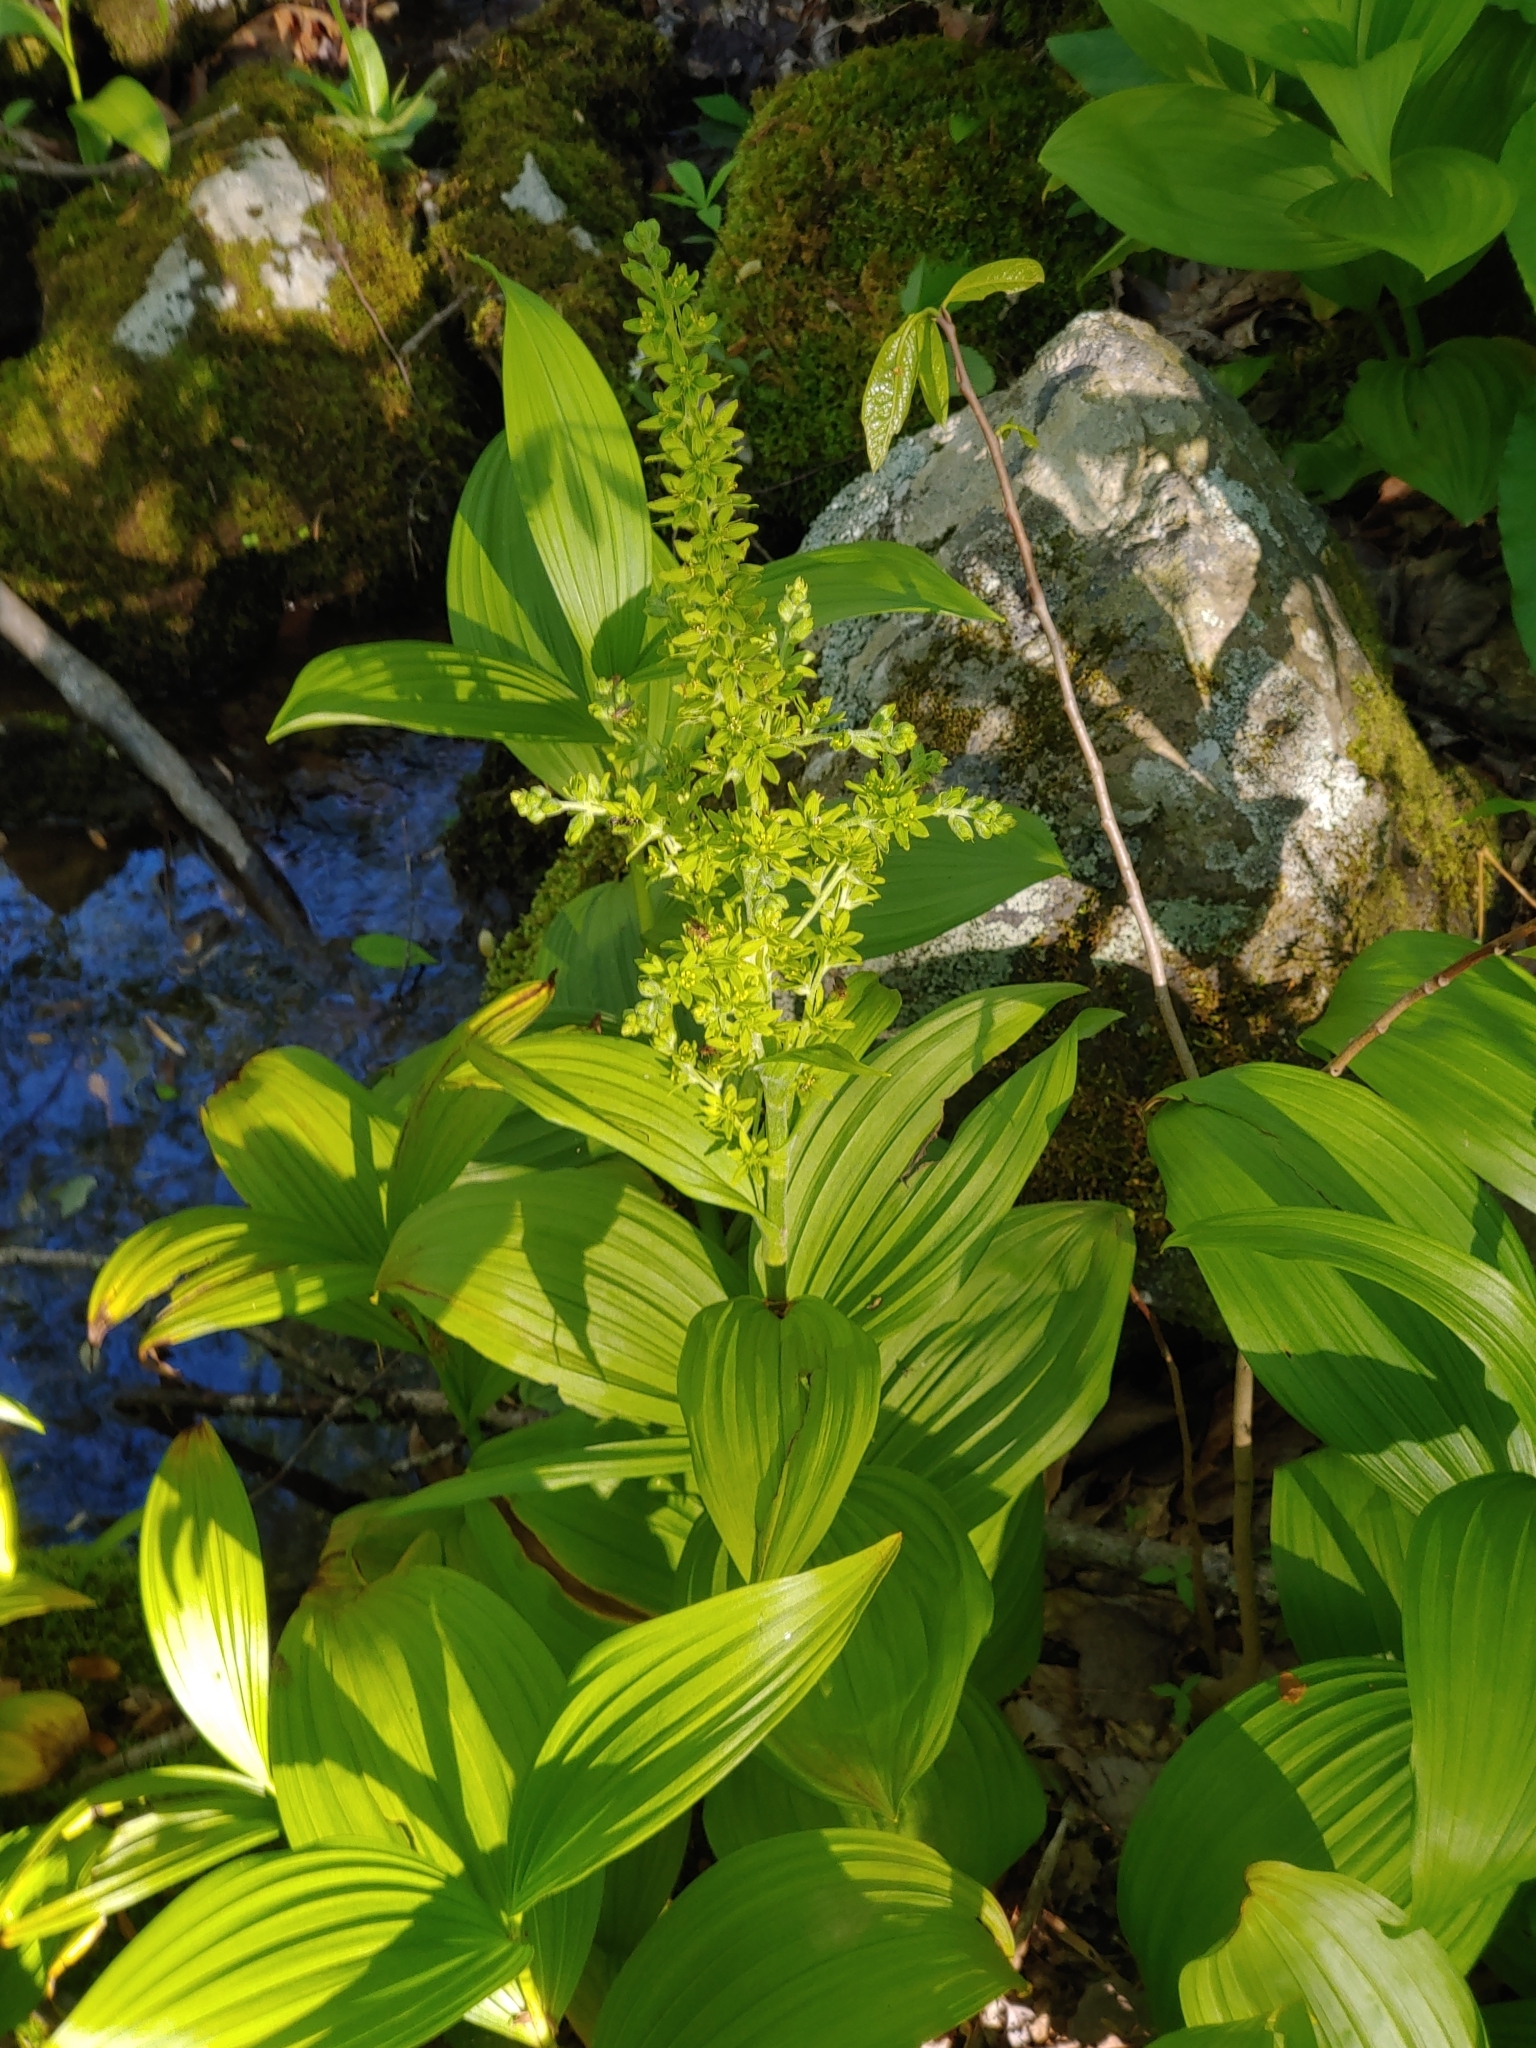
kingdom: Plantae
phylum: Tracheophyta
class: Liliopsida
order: Liliales
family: Melanthiaceae
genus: Veratrum
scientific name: Veratrum viride
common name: American false hellebore
